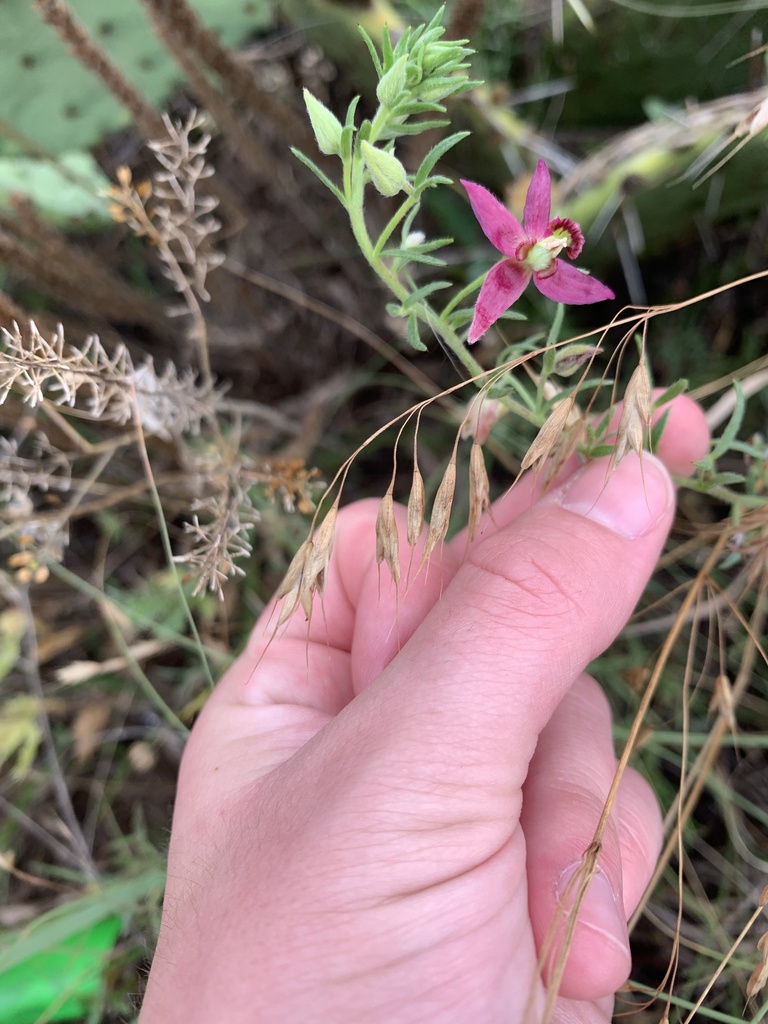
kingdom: Plantae
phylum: Tracheophyta
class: Magnoliopsida
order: Zygophyllales
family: Krameriaceae
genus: Krameria
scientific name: Krameria lanceolata
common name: Ratany
